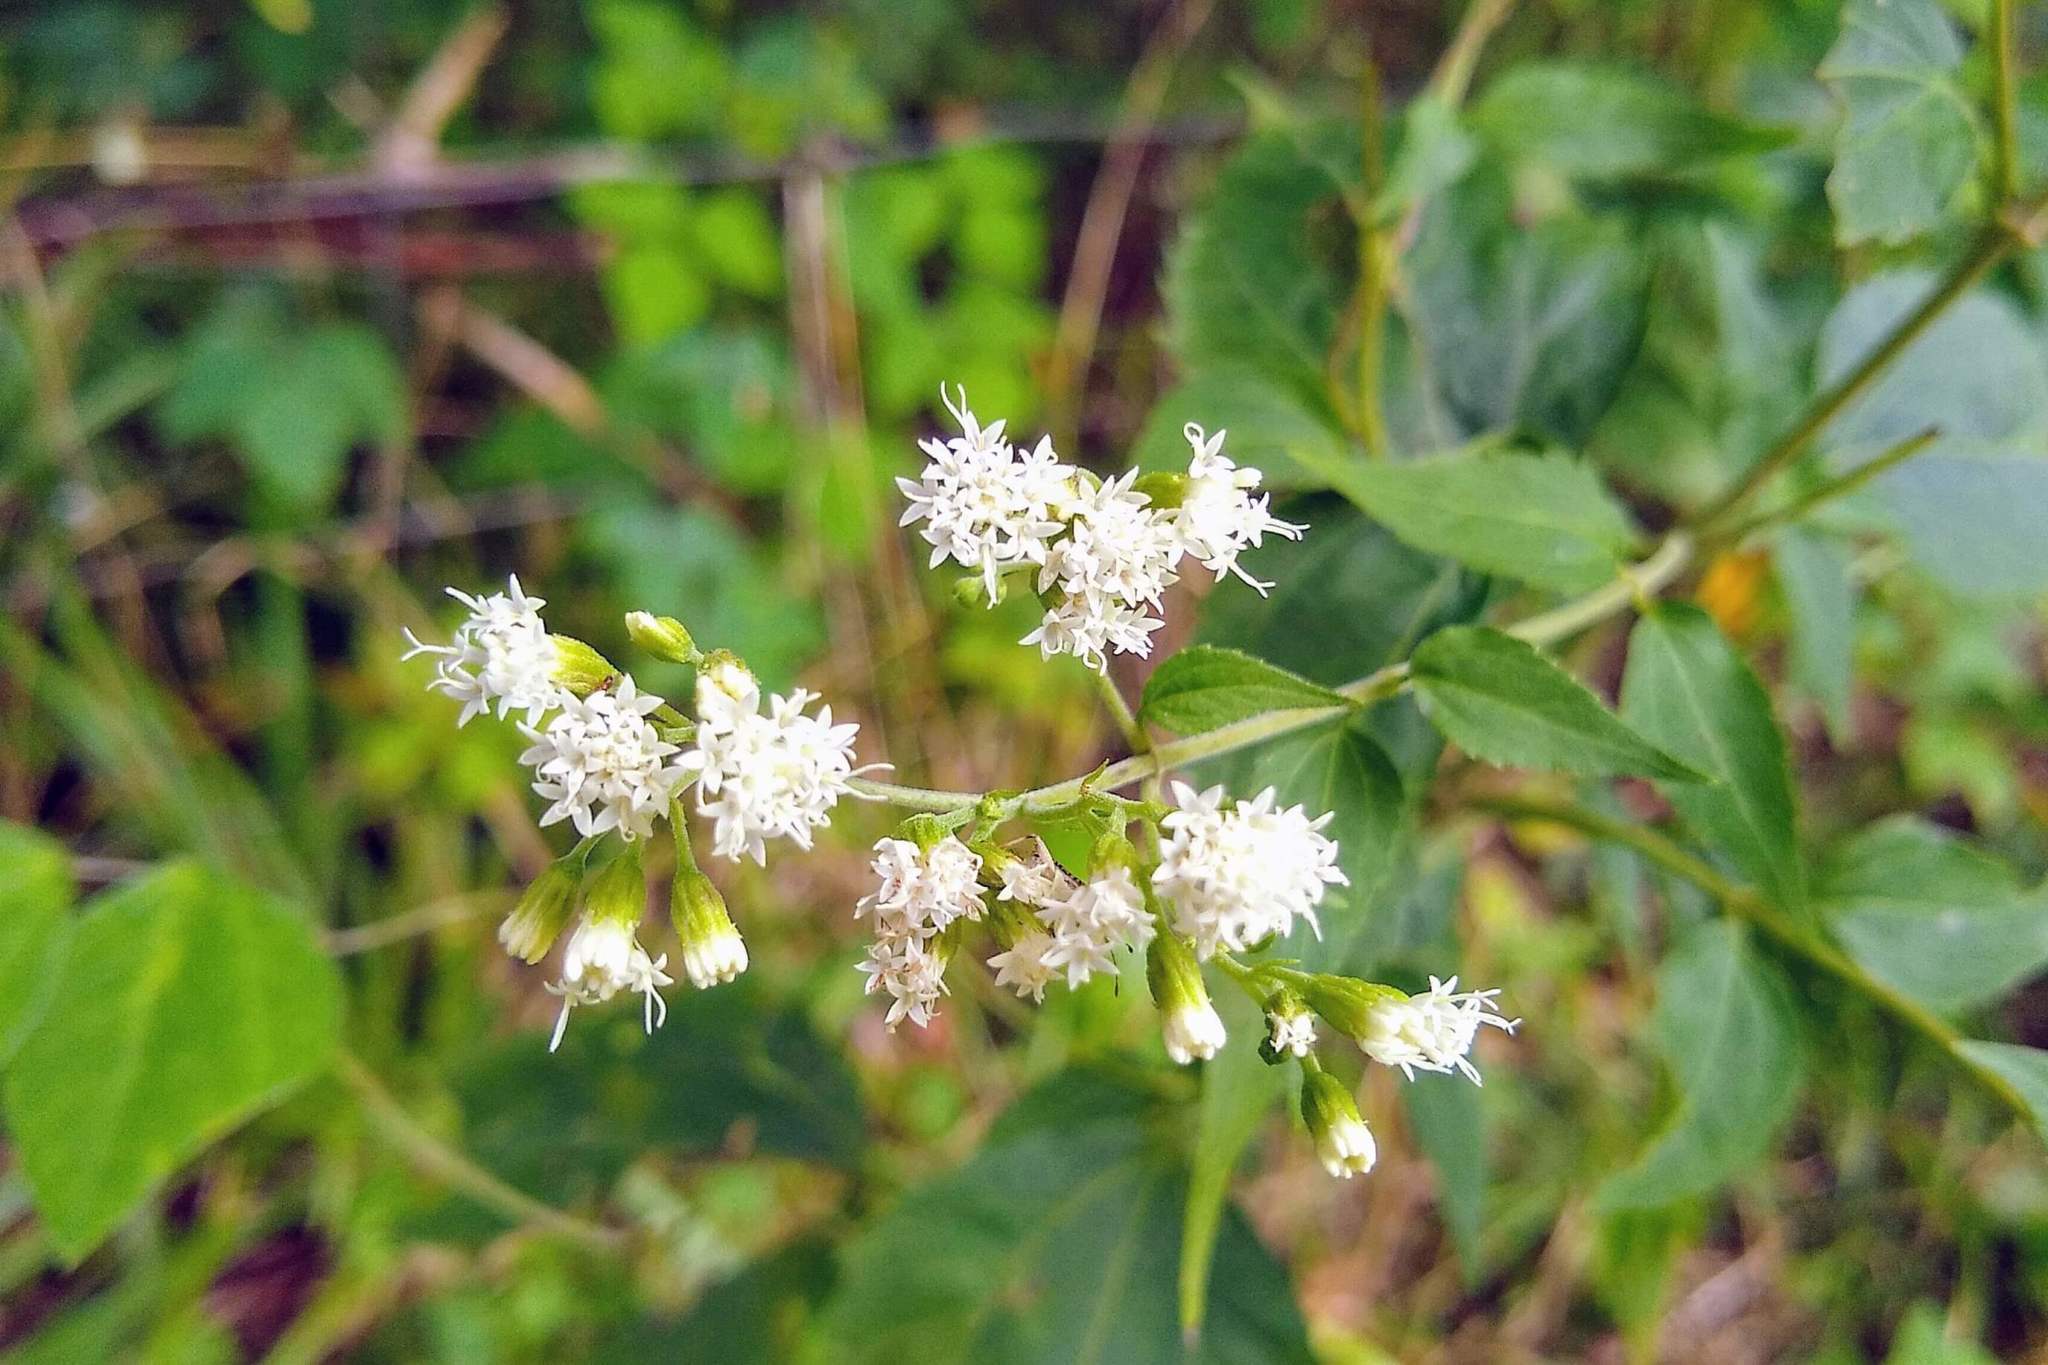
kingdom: Plantae
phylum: Tracheophyta
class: Magnoliopsida
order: Asterales
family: Asteraceae
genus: Ageratina
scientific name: Ageratina altissima
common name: White snakeroot
